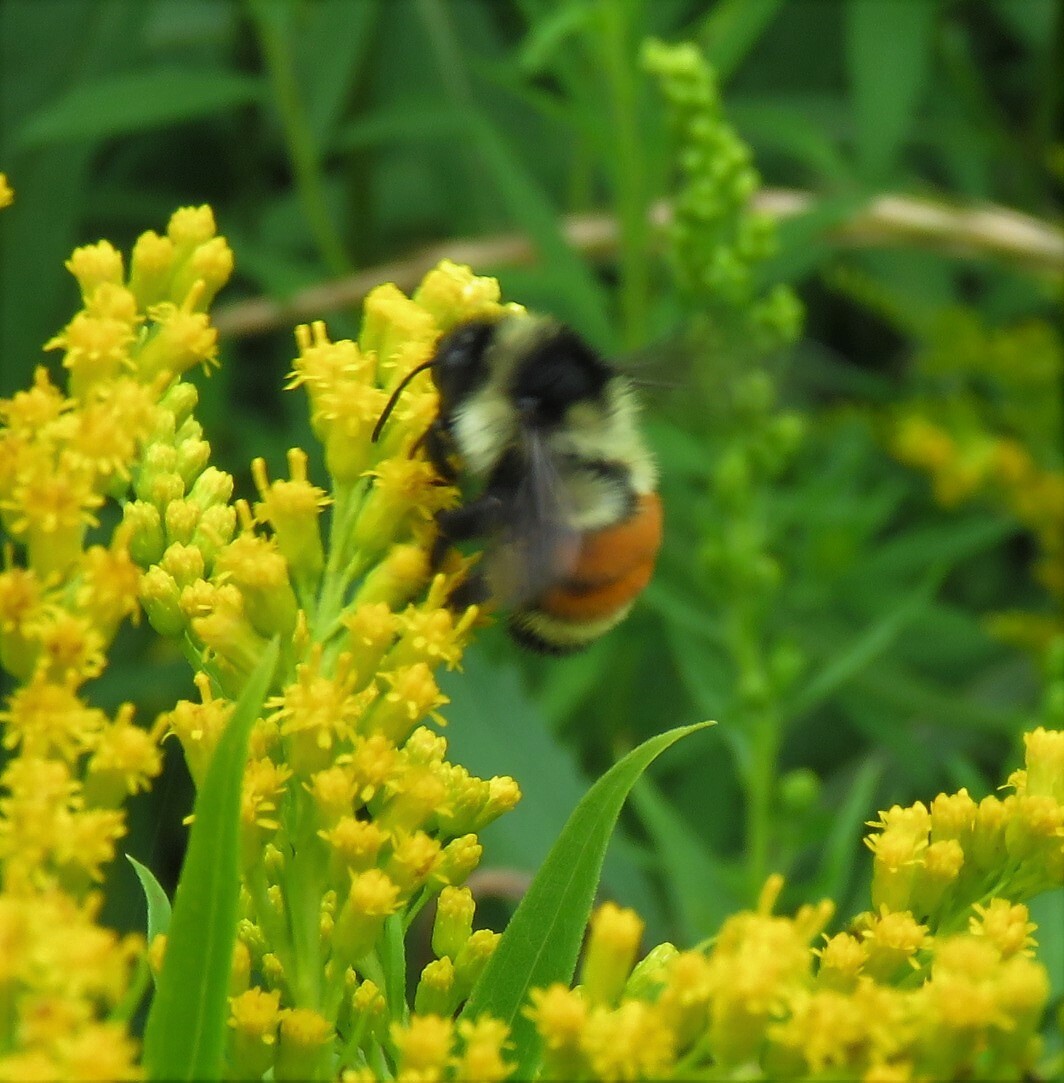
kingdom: Animalia
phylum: Arthropoda
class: Insecta
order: Hymenoptera
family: Apidae
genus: Bombus
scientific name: Bombus ternarius
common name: Tri-colored bumble bee
